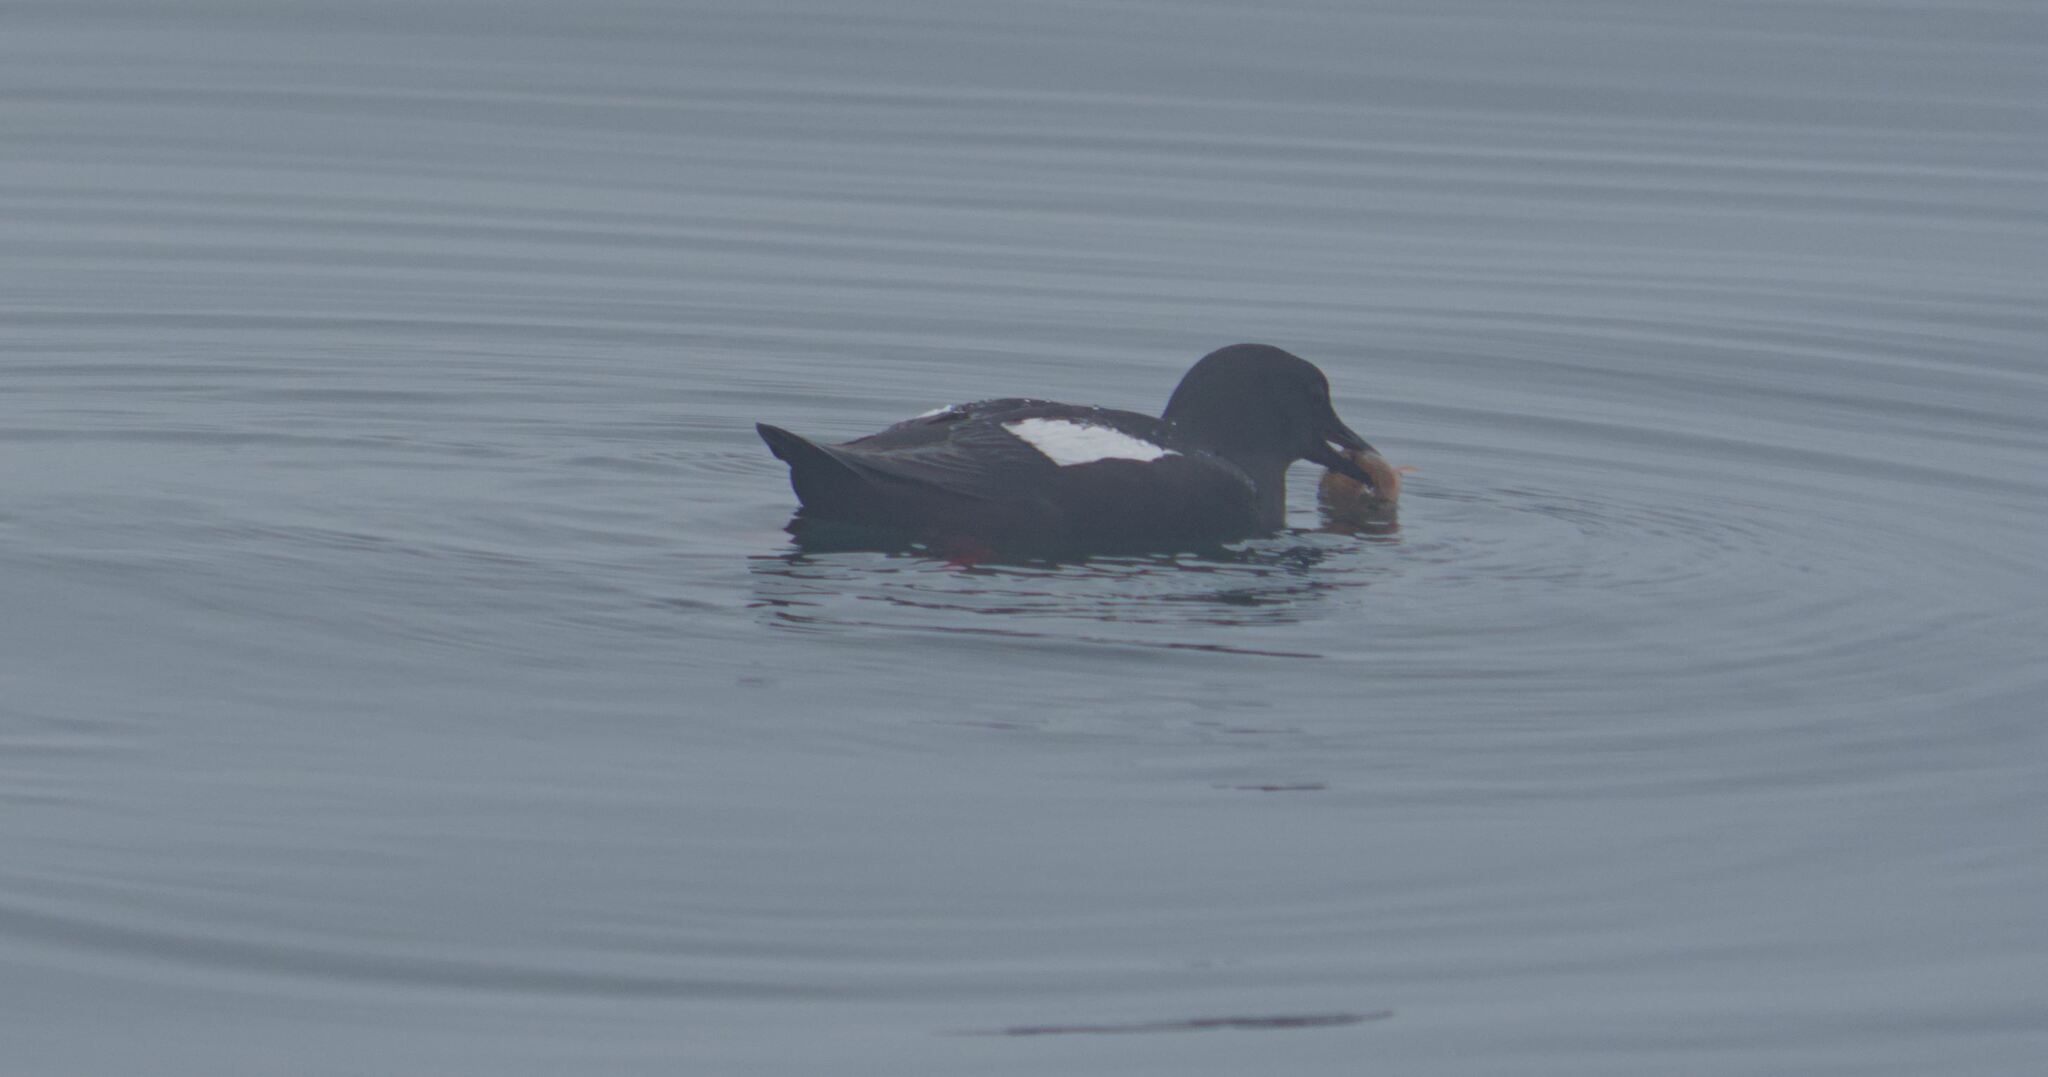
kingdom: Animalia
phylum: Chordata
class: Aves
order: Charadriiformes
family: Alcidae
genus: Cepphus
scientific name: Cepphus grylle
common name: Black guillemot
